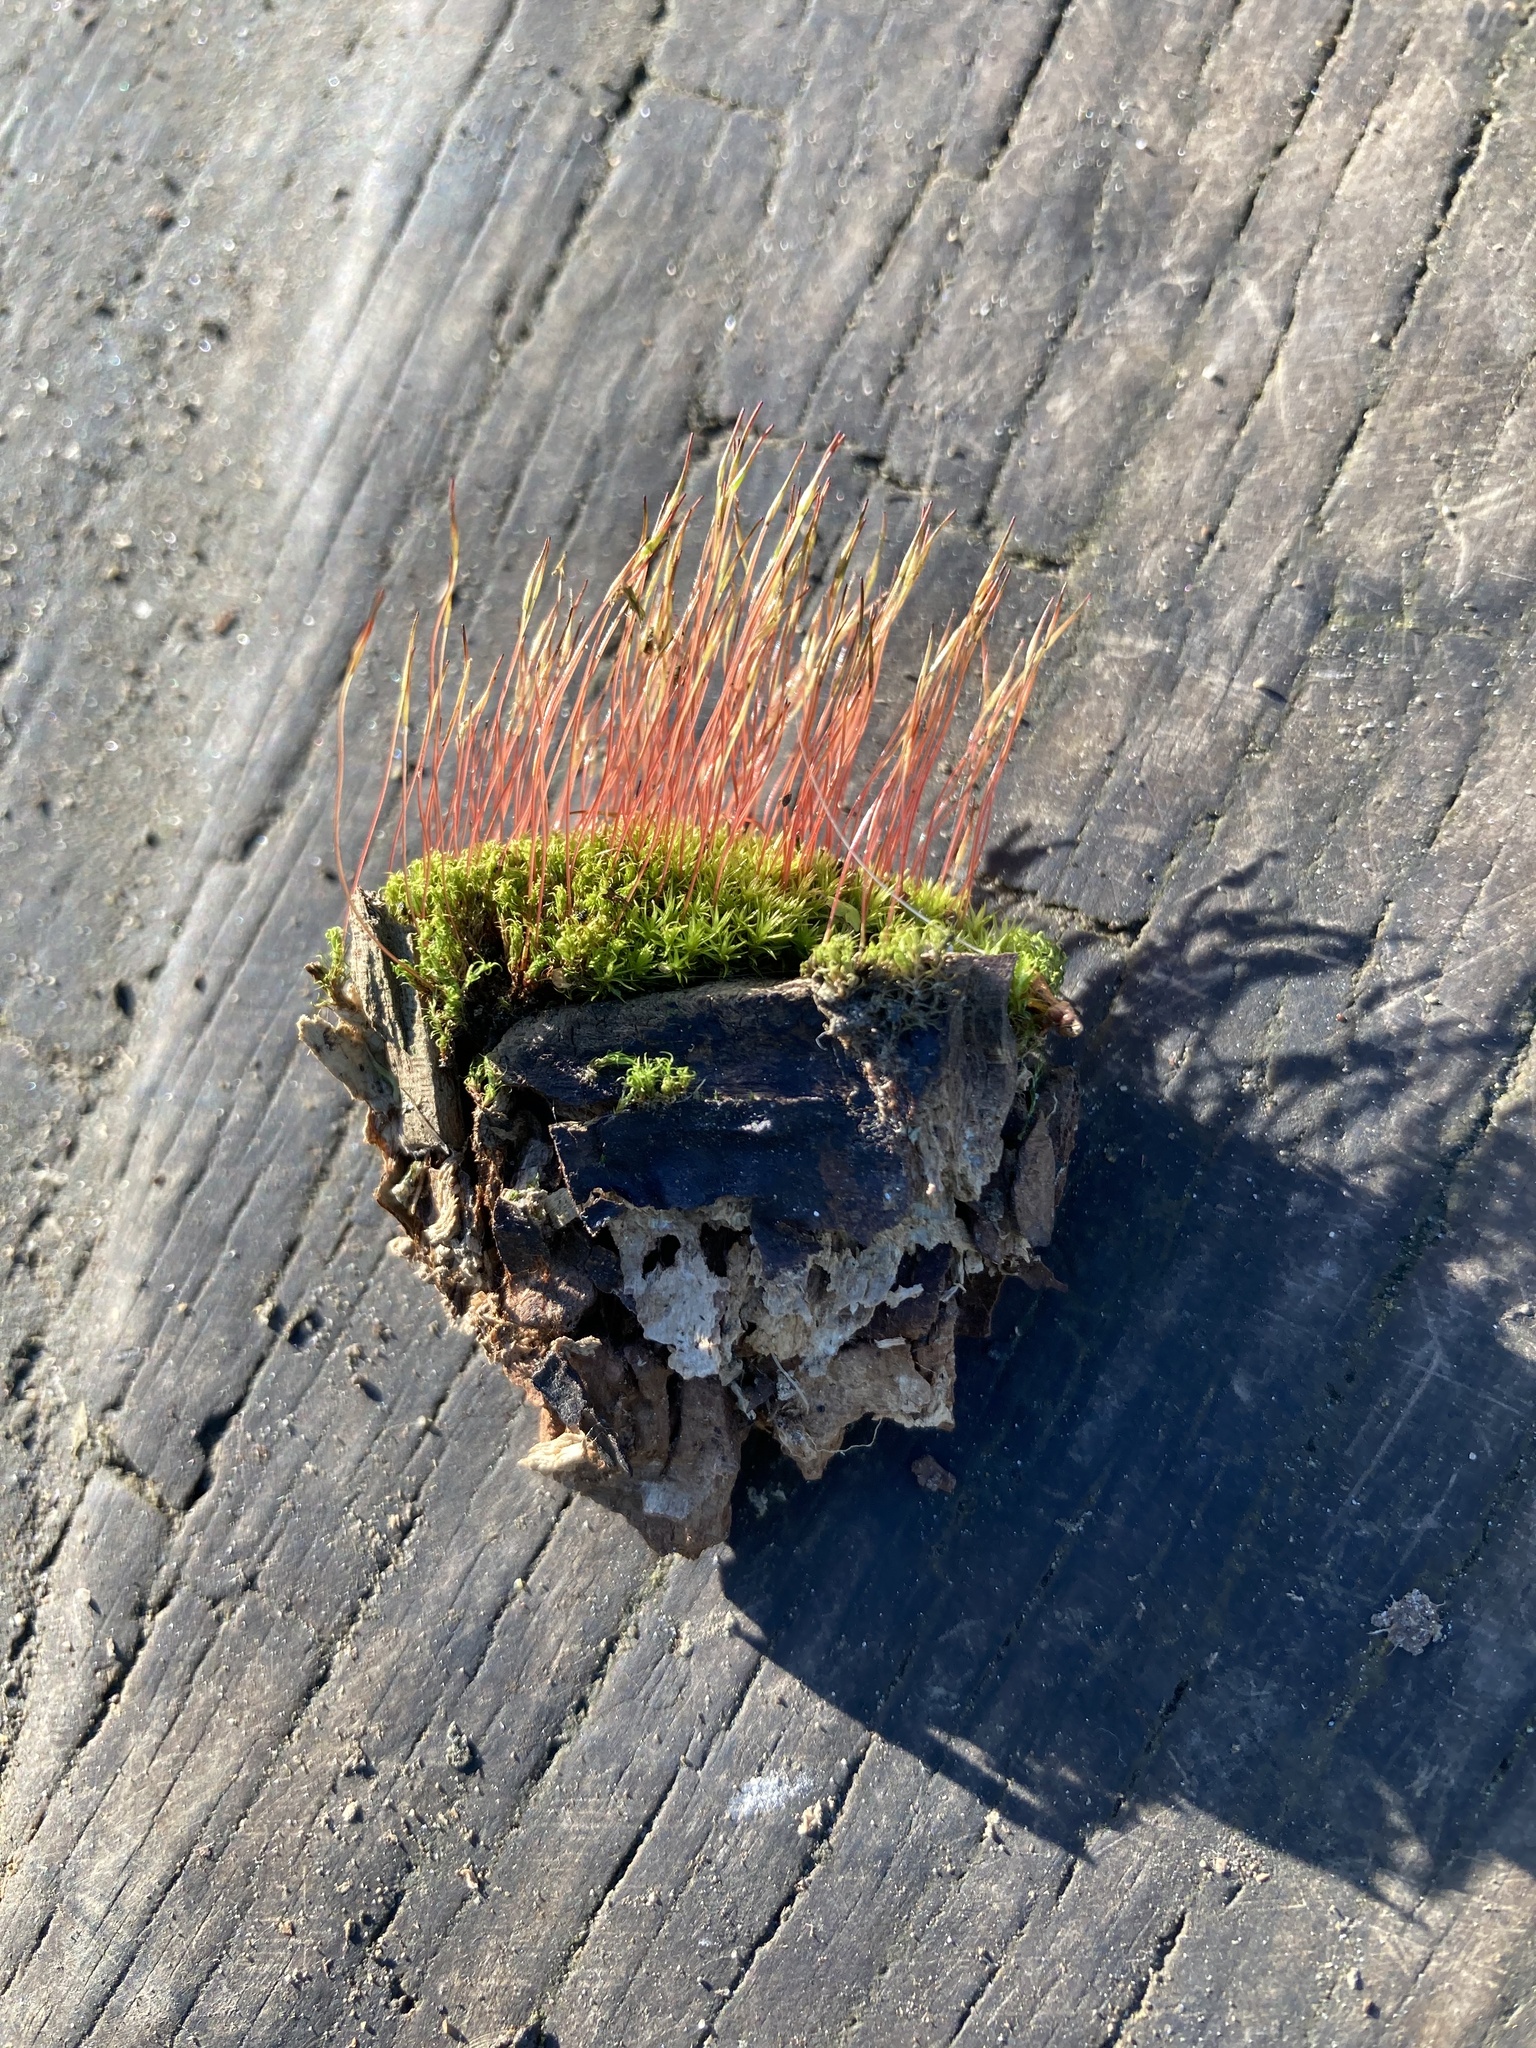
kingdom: Plantae
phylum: Bryophyta
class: Bryopsida
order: Dicranales
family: Ditrichaceae
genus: Ceratodon
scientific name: Ceratodon purpureus
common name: Redshank
